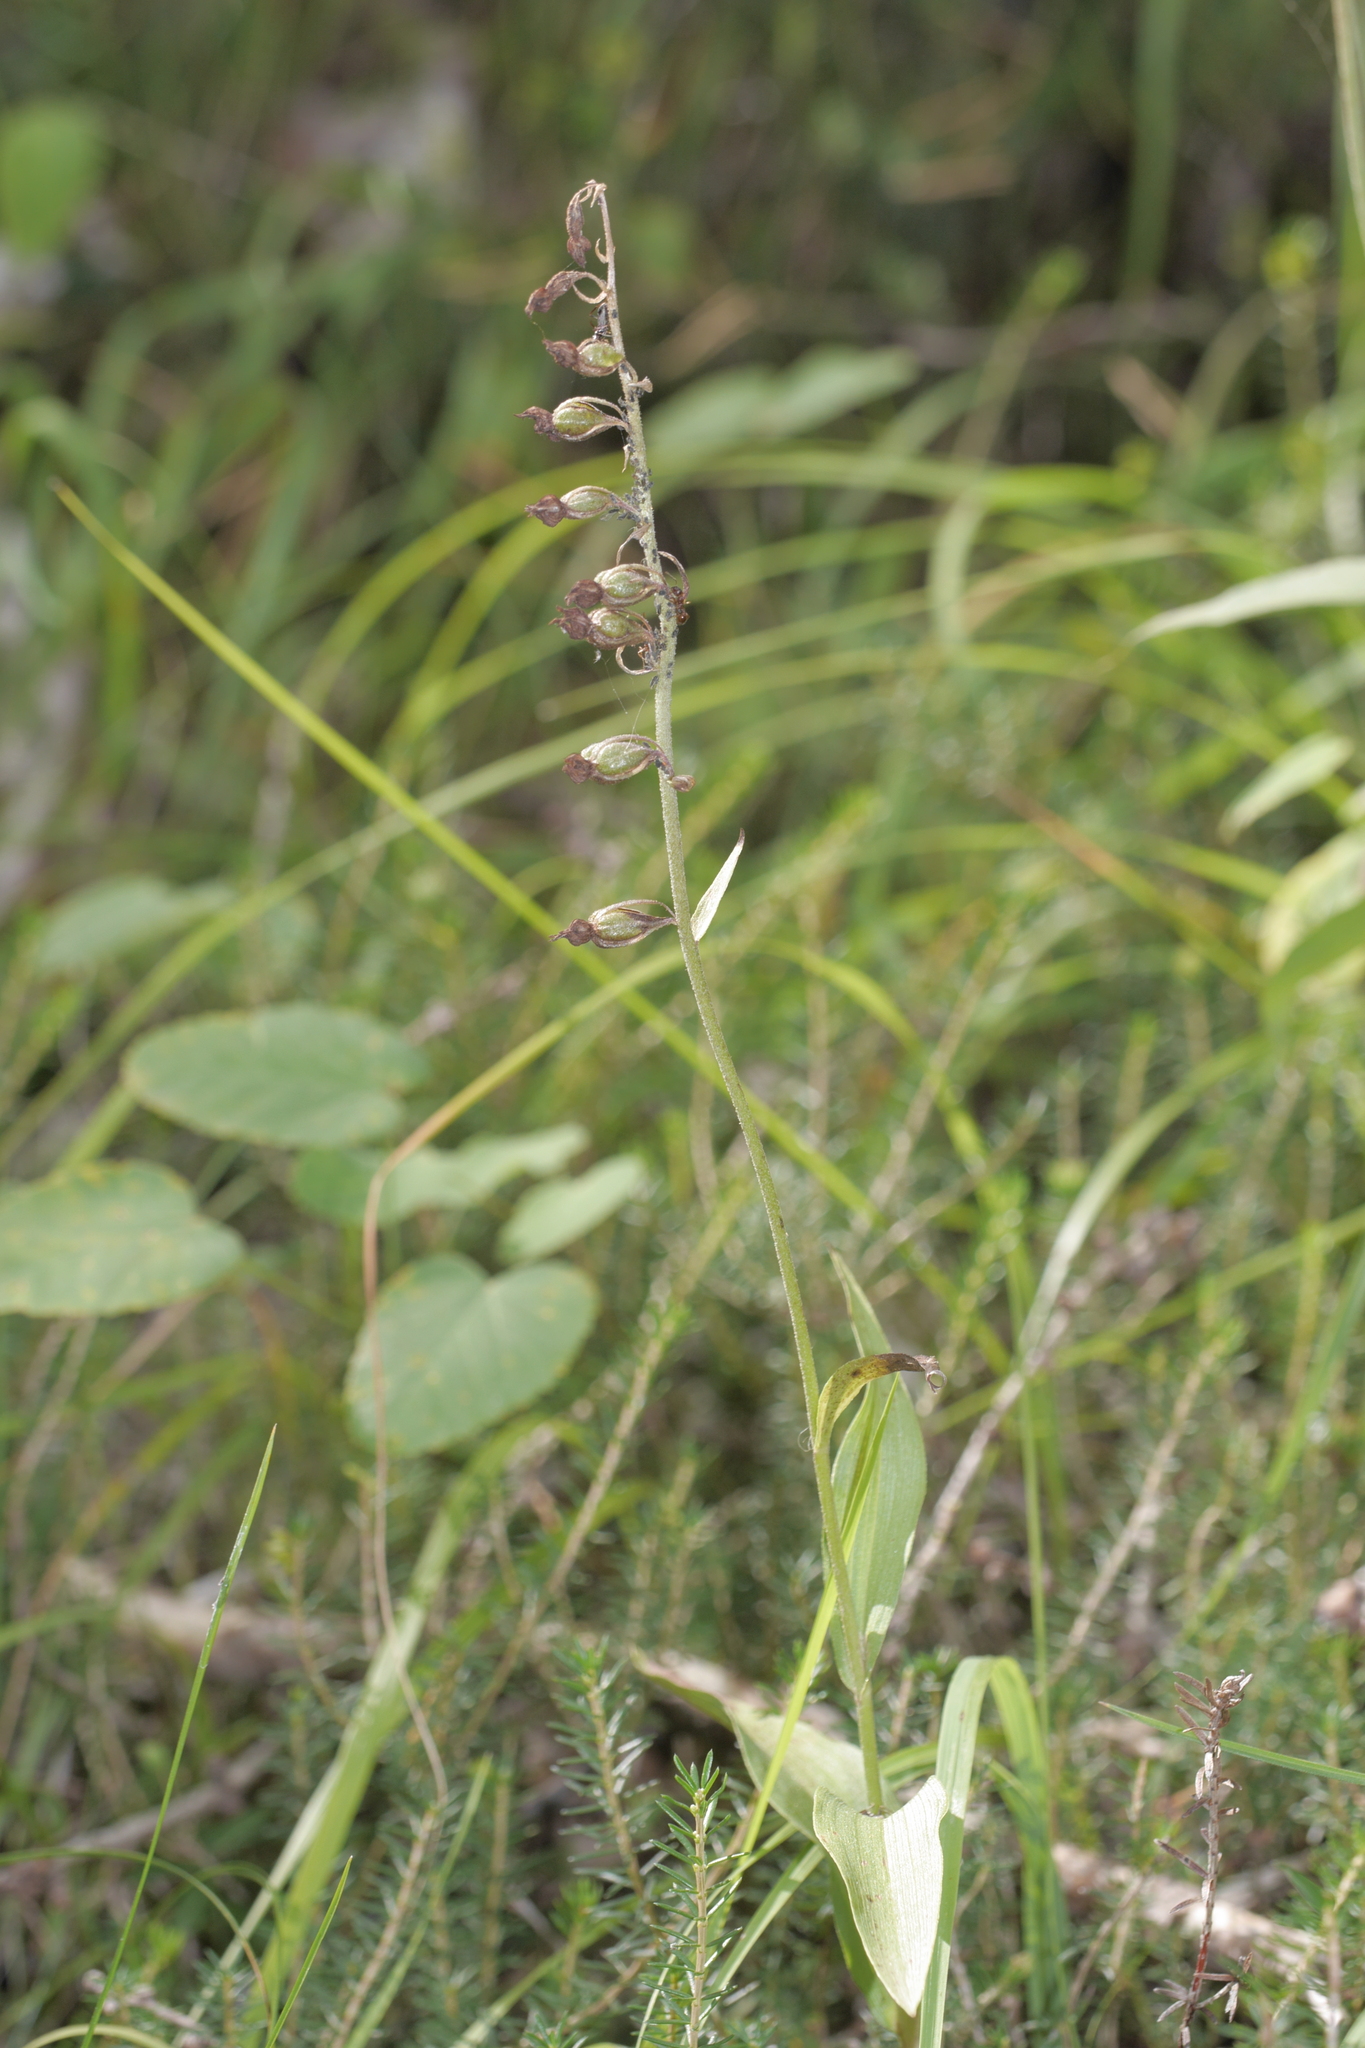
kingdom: Plantae
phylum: Tracheophyta
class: Liliopsida
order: Asparagales
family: Orchidaceae
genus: Epipactis
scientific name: Epipactis atrorubens
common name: Dark-red helleborine
